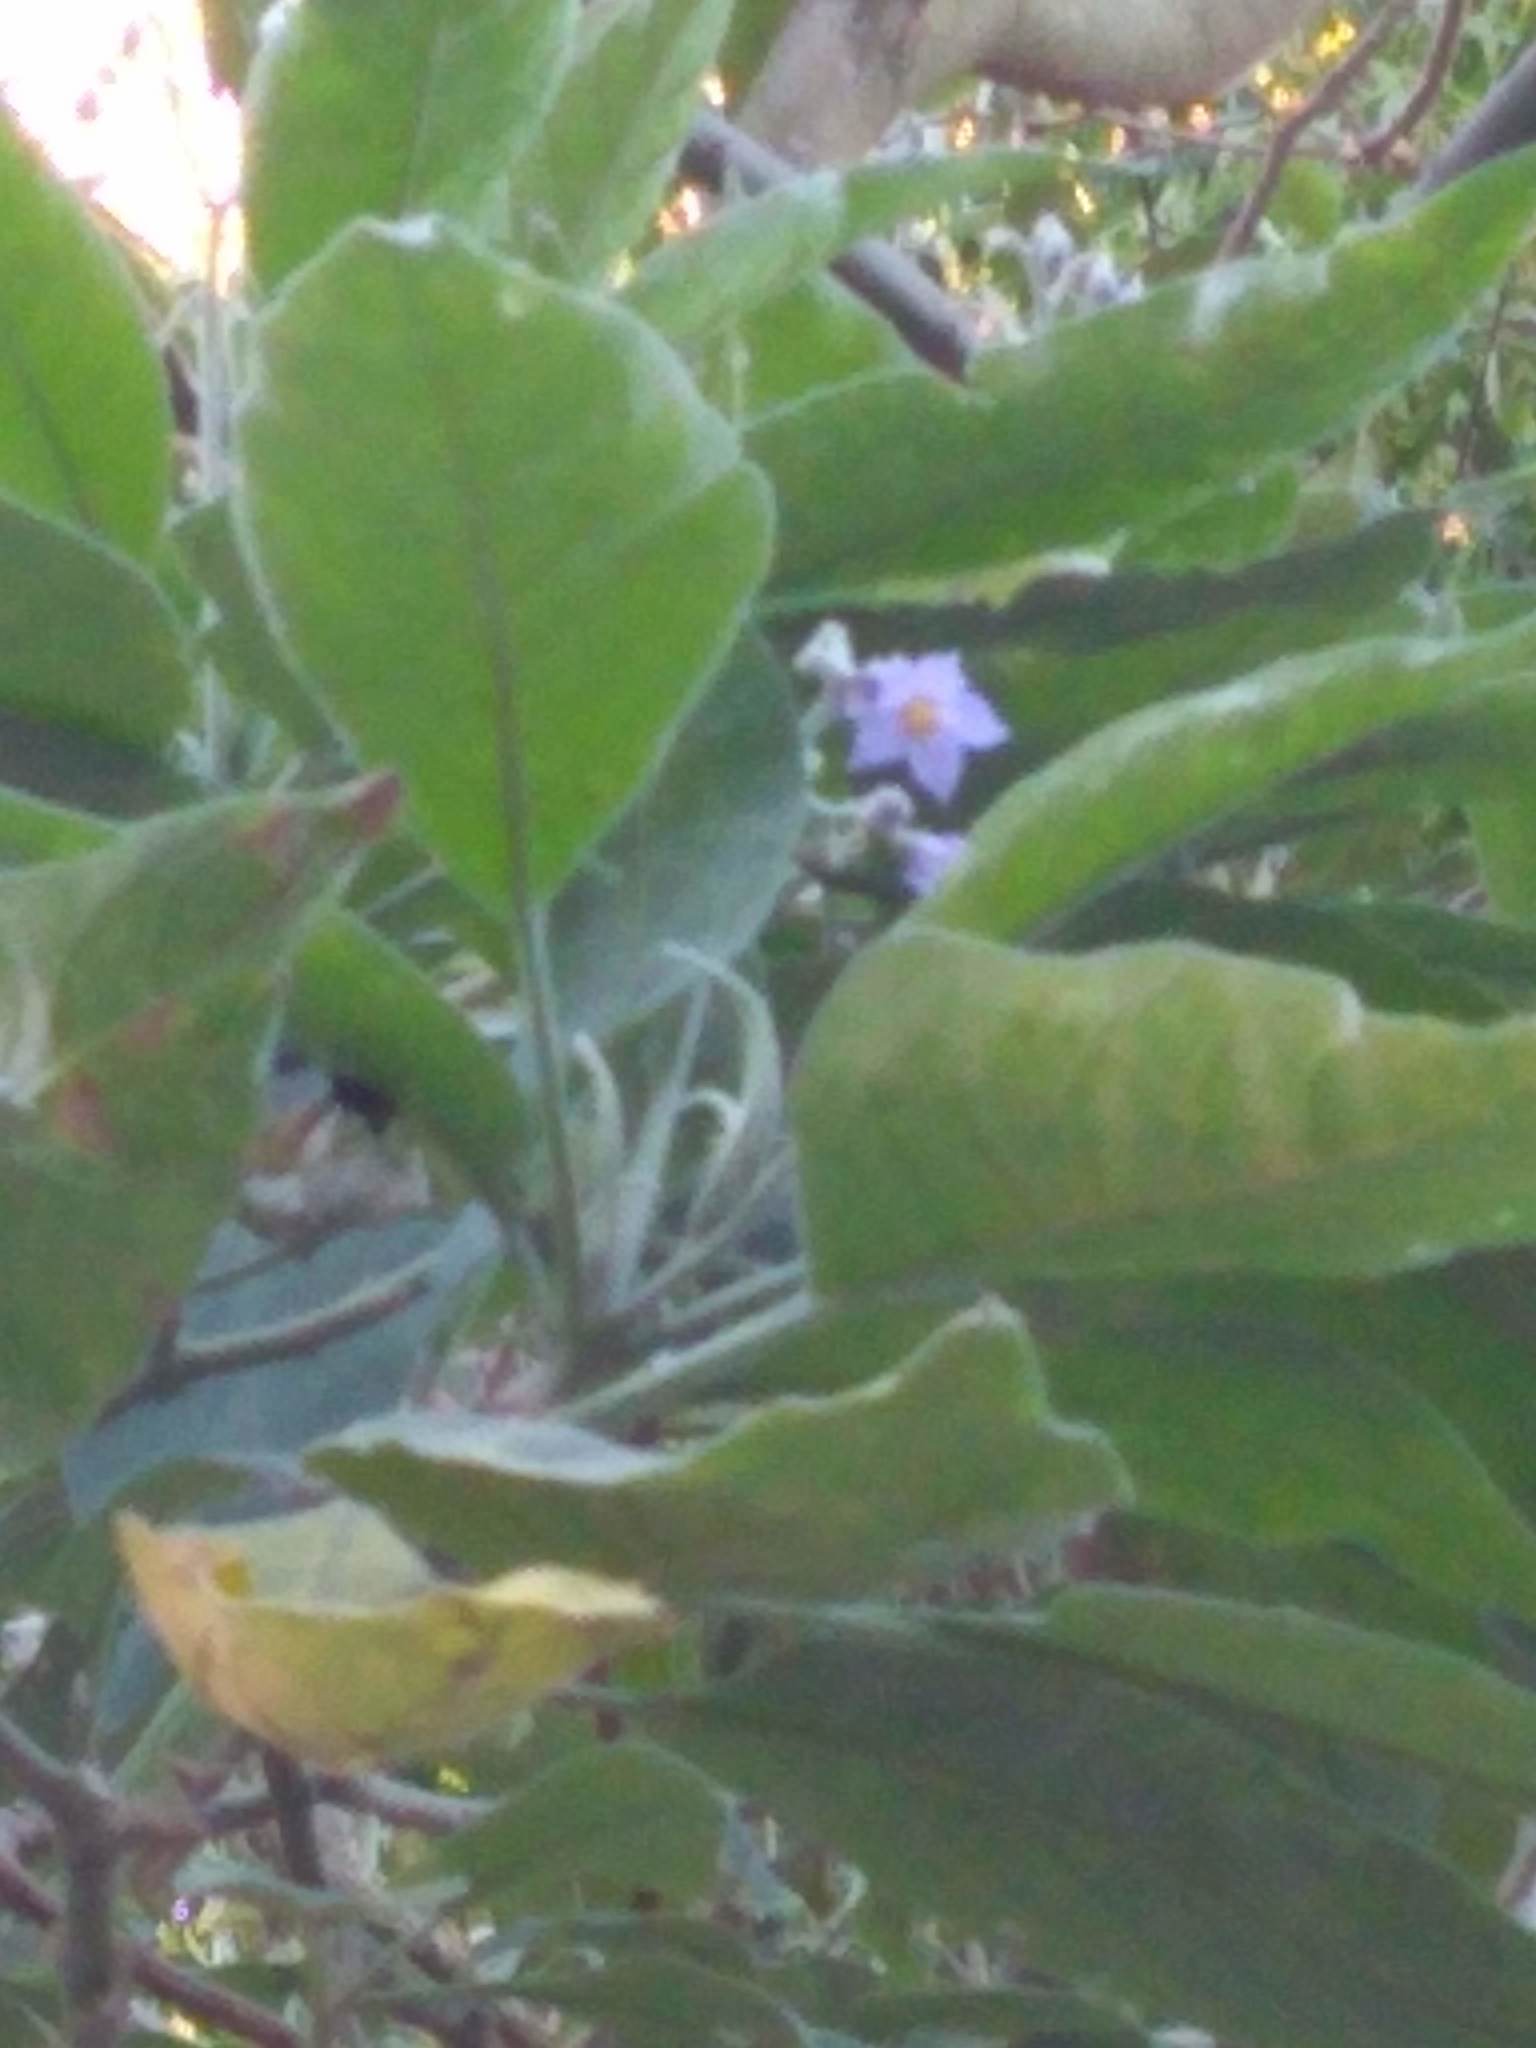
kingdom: Plantae
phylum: Tracheophyta
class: Magnoliopsida
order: Solanales
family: Solanaceae
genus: Solanum
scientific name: Solanum granulosoleprosum
